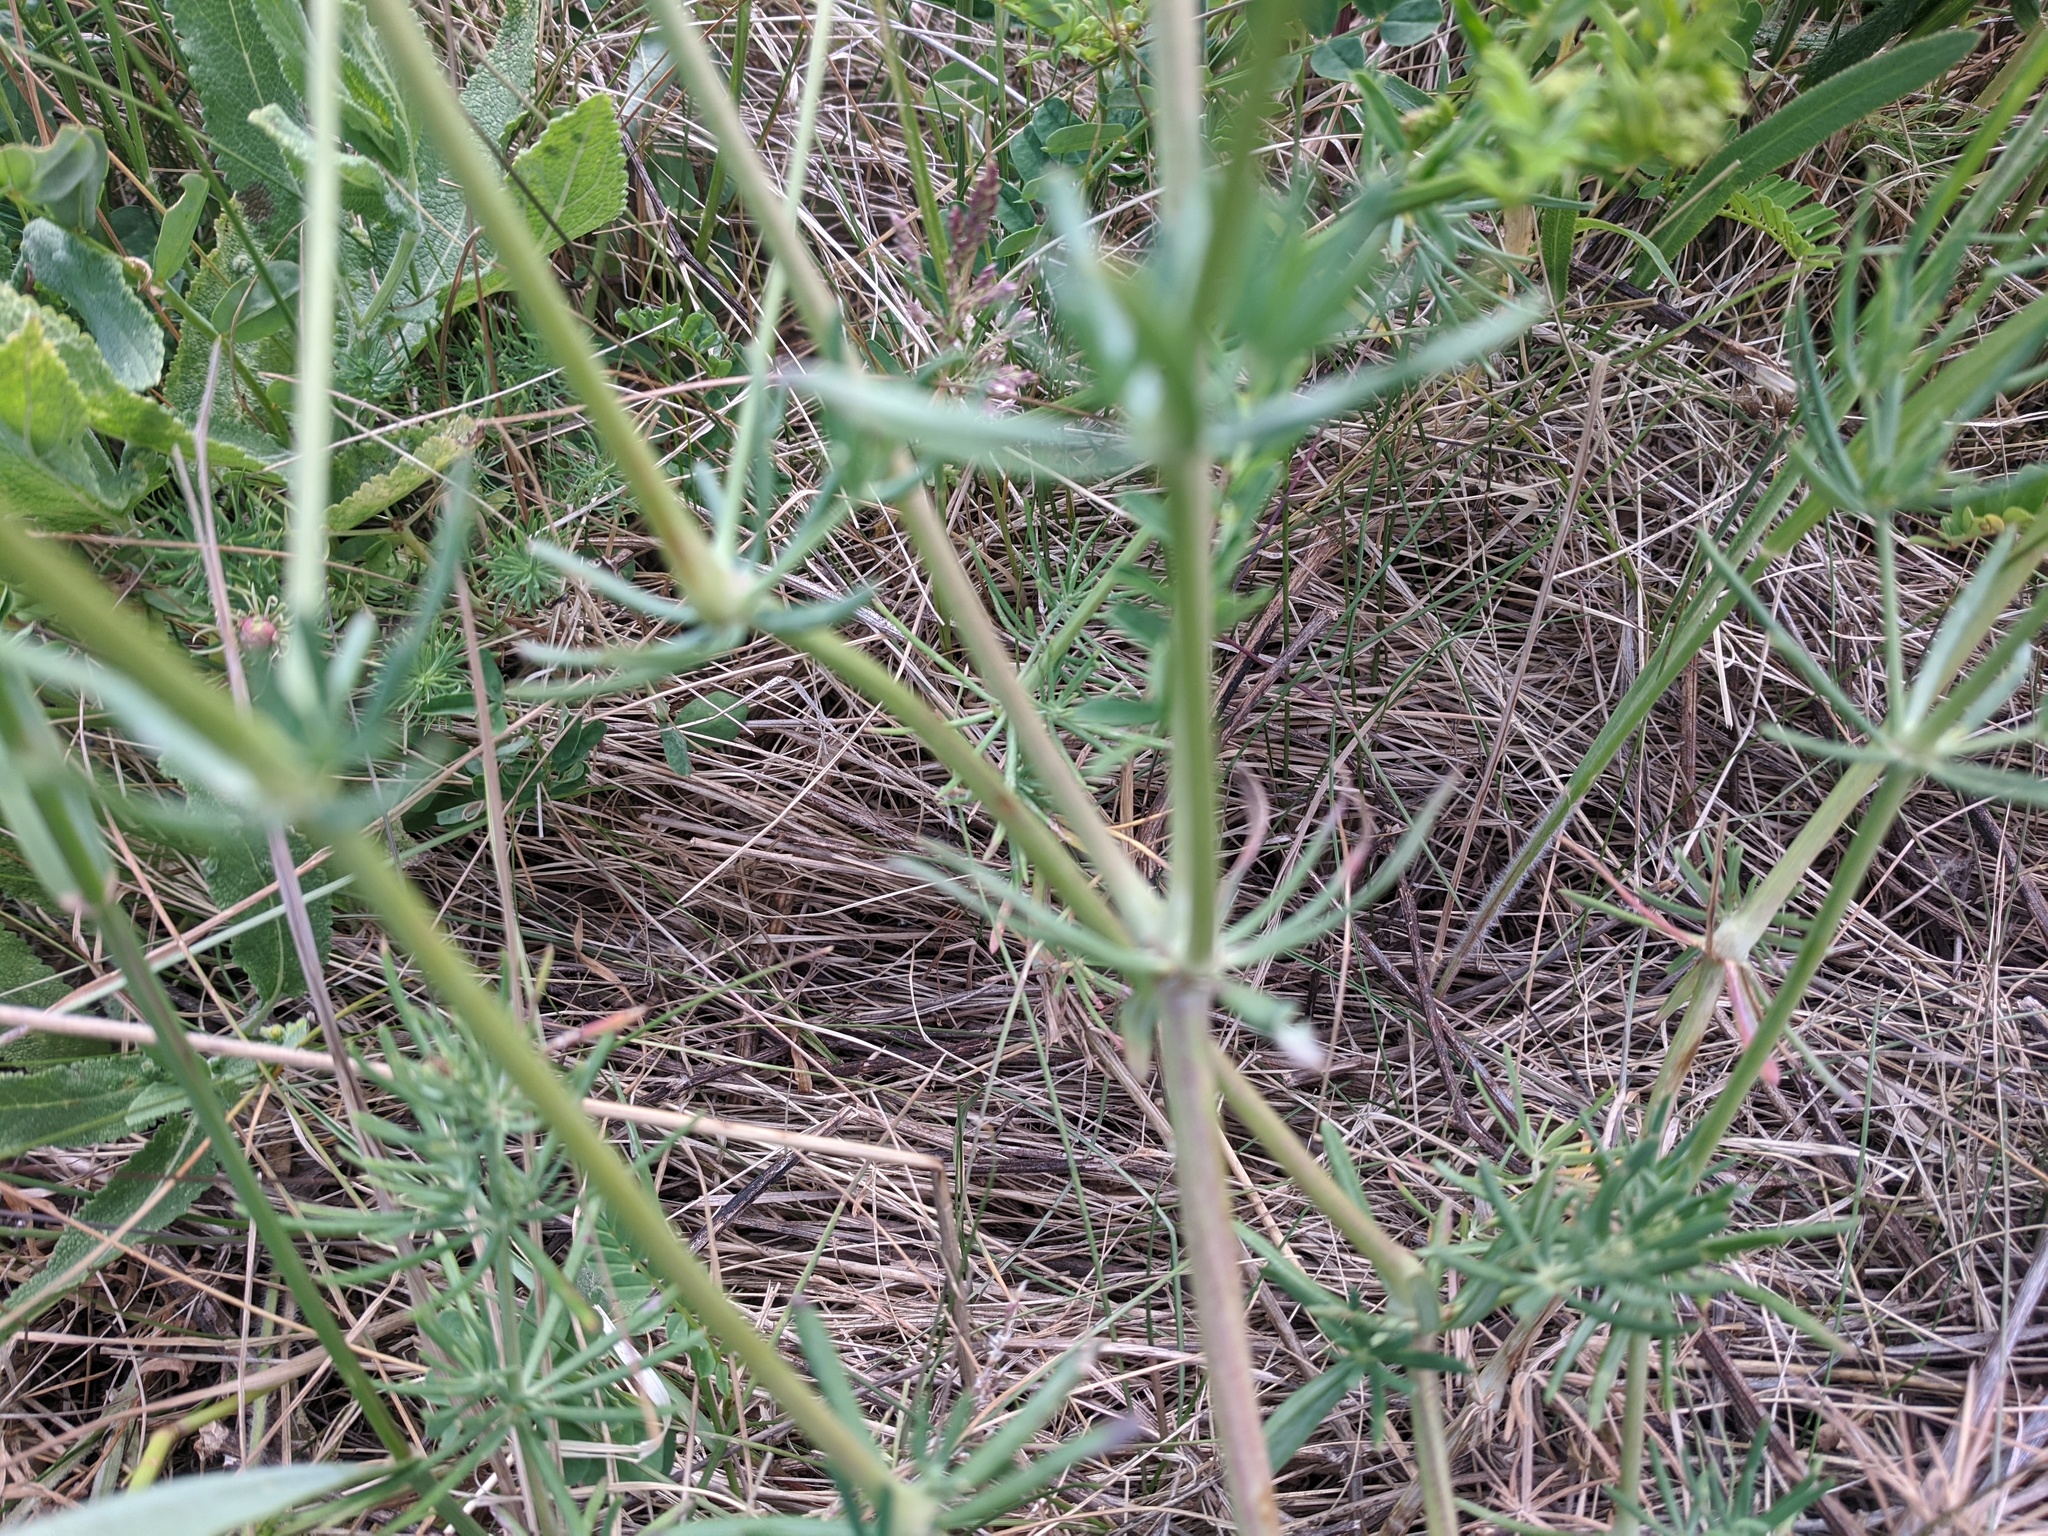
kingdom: Plantae
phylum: Tracheophyta
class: Magnoliopsida
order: Gentianales
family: Rubiaceae
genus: Galium
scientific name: Galium glaucum
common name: Waxy bedstraw
